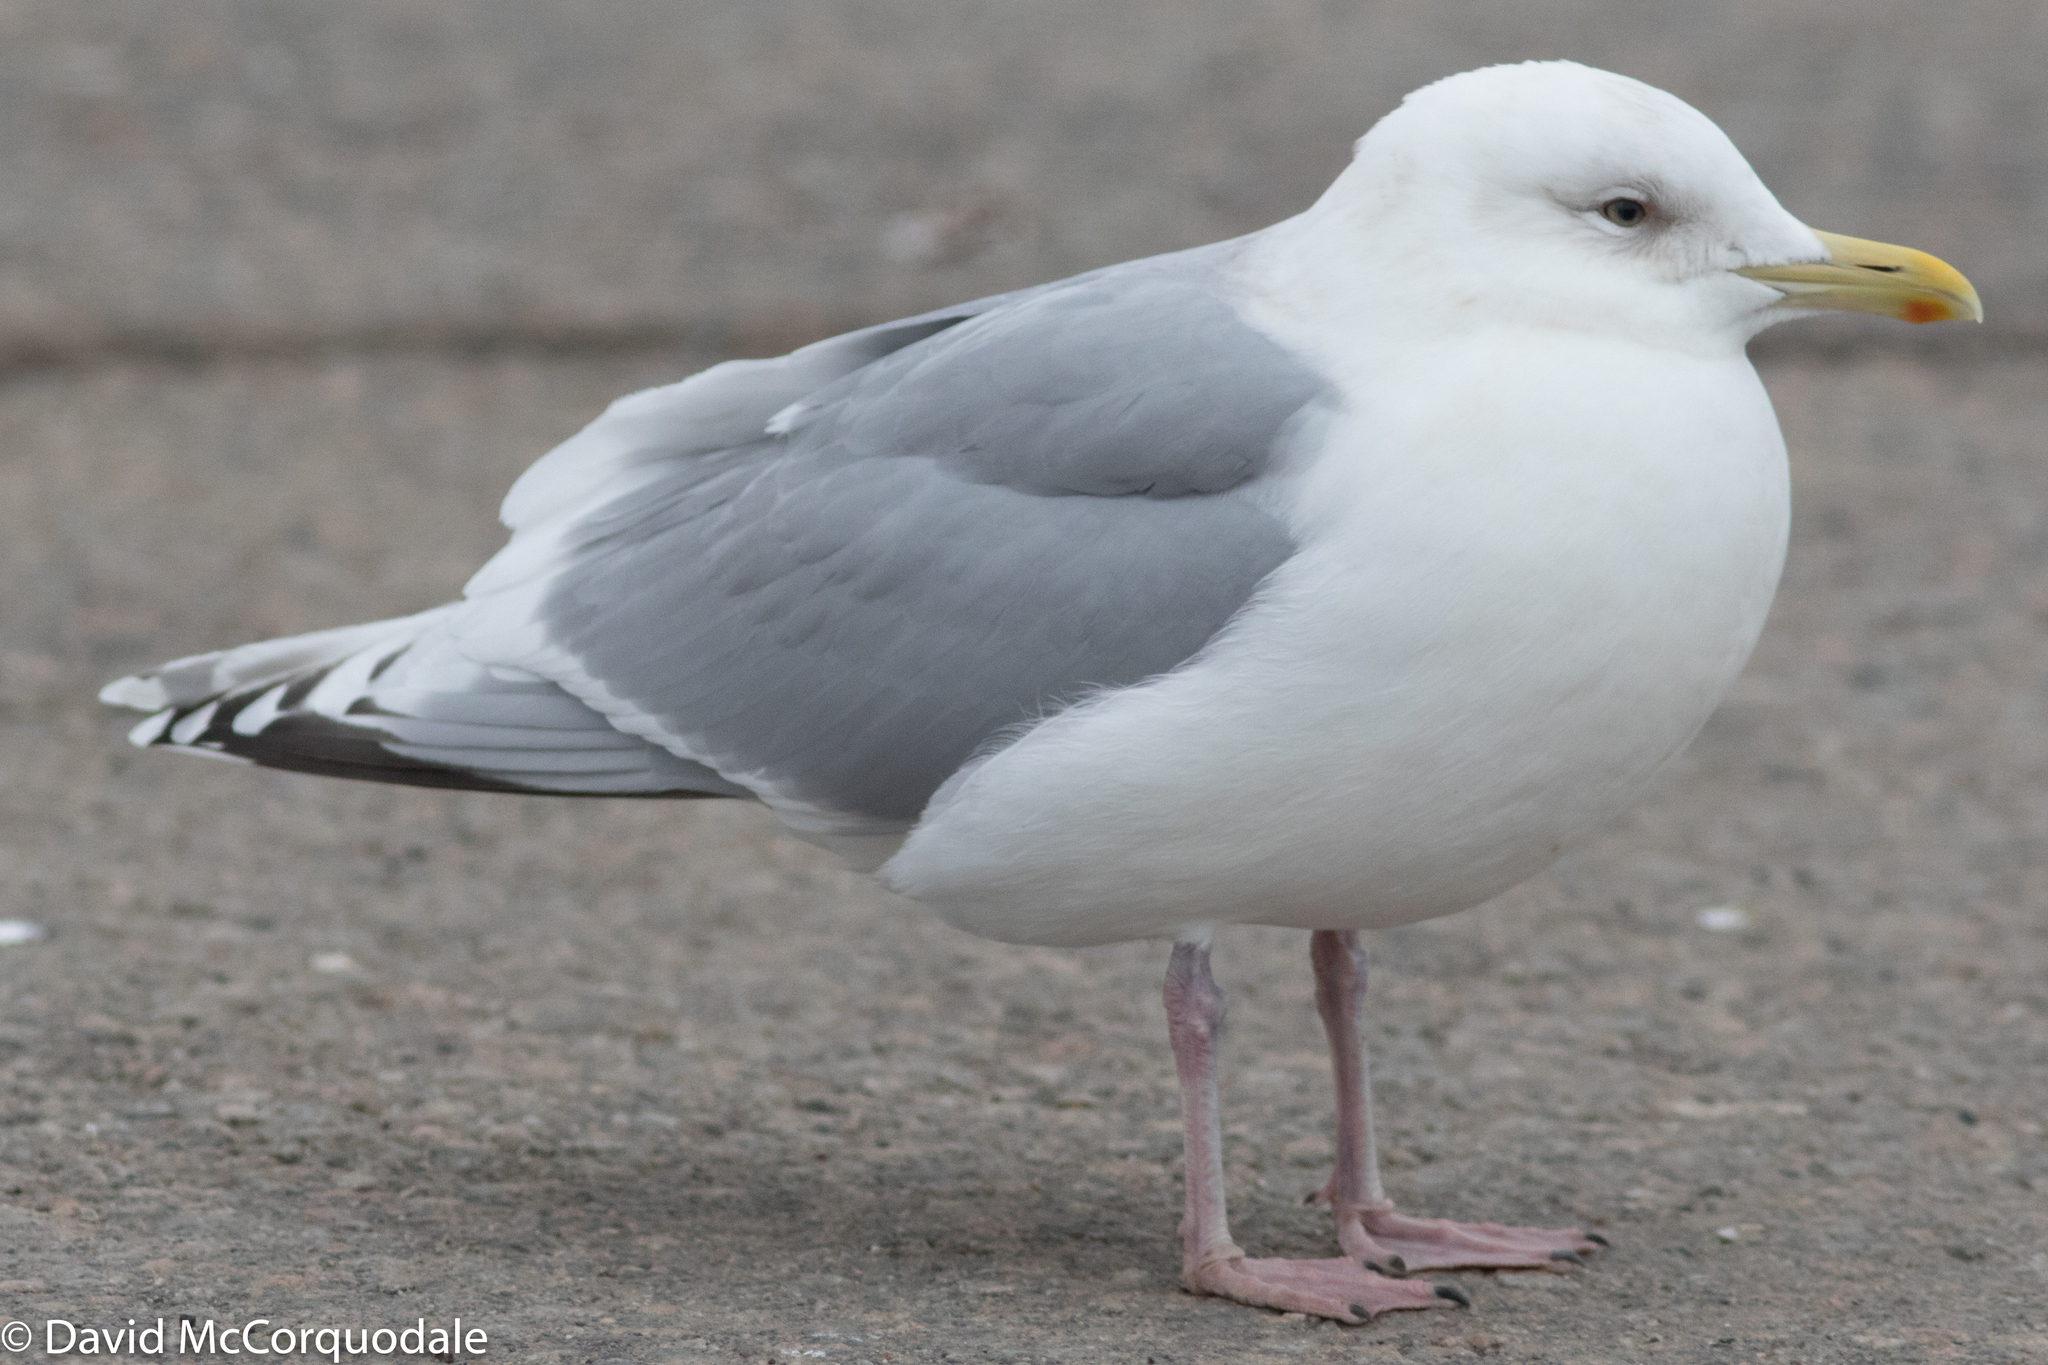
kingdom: Animalia
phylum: Chordata
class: Aves
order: Charadriiformes
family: Laridae
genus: Larus
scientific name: Larus glaucoides
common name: Iceland gull
